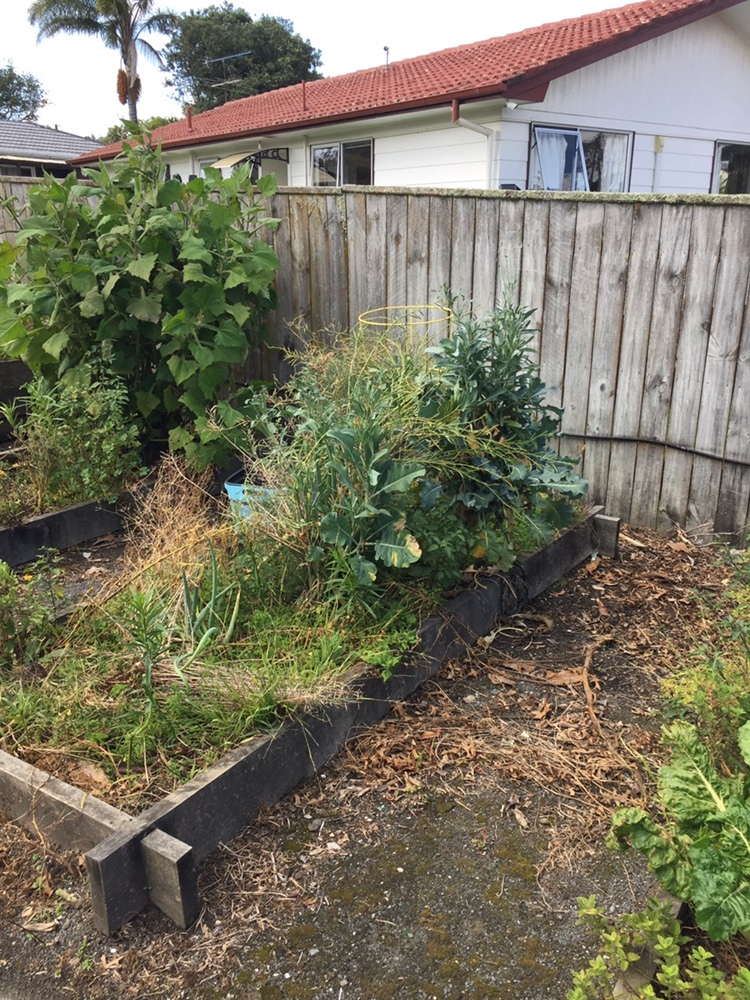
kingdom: Animalia
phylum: Arthropoda
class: Insecta
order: Hemiptera
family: Aleyrodidae
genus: Aleyrodes
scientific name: Aleyrodes proletella
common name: Cabbage whitefly
